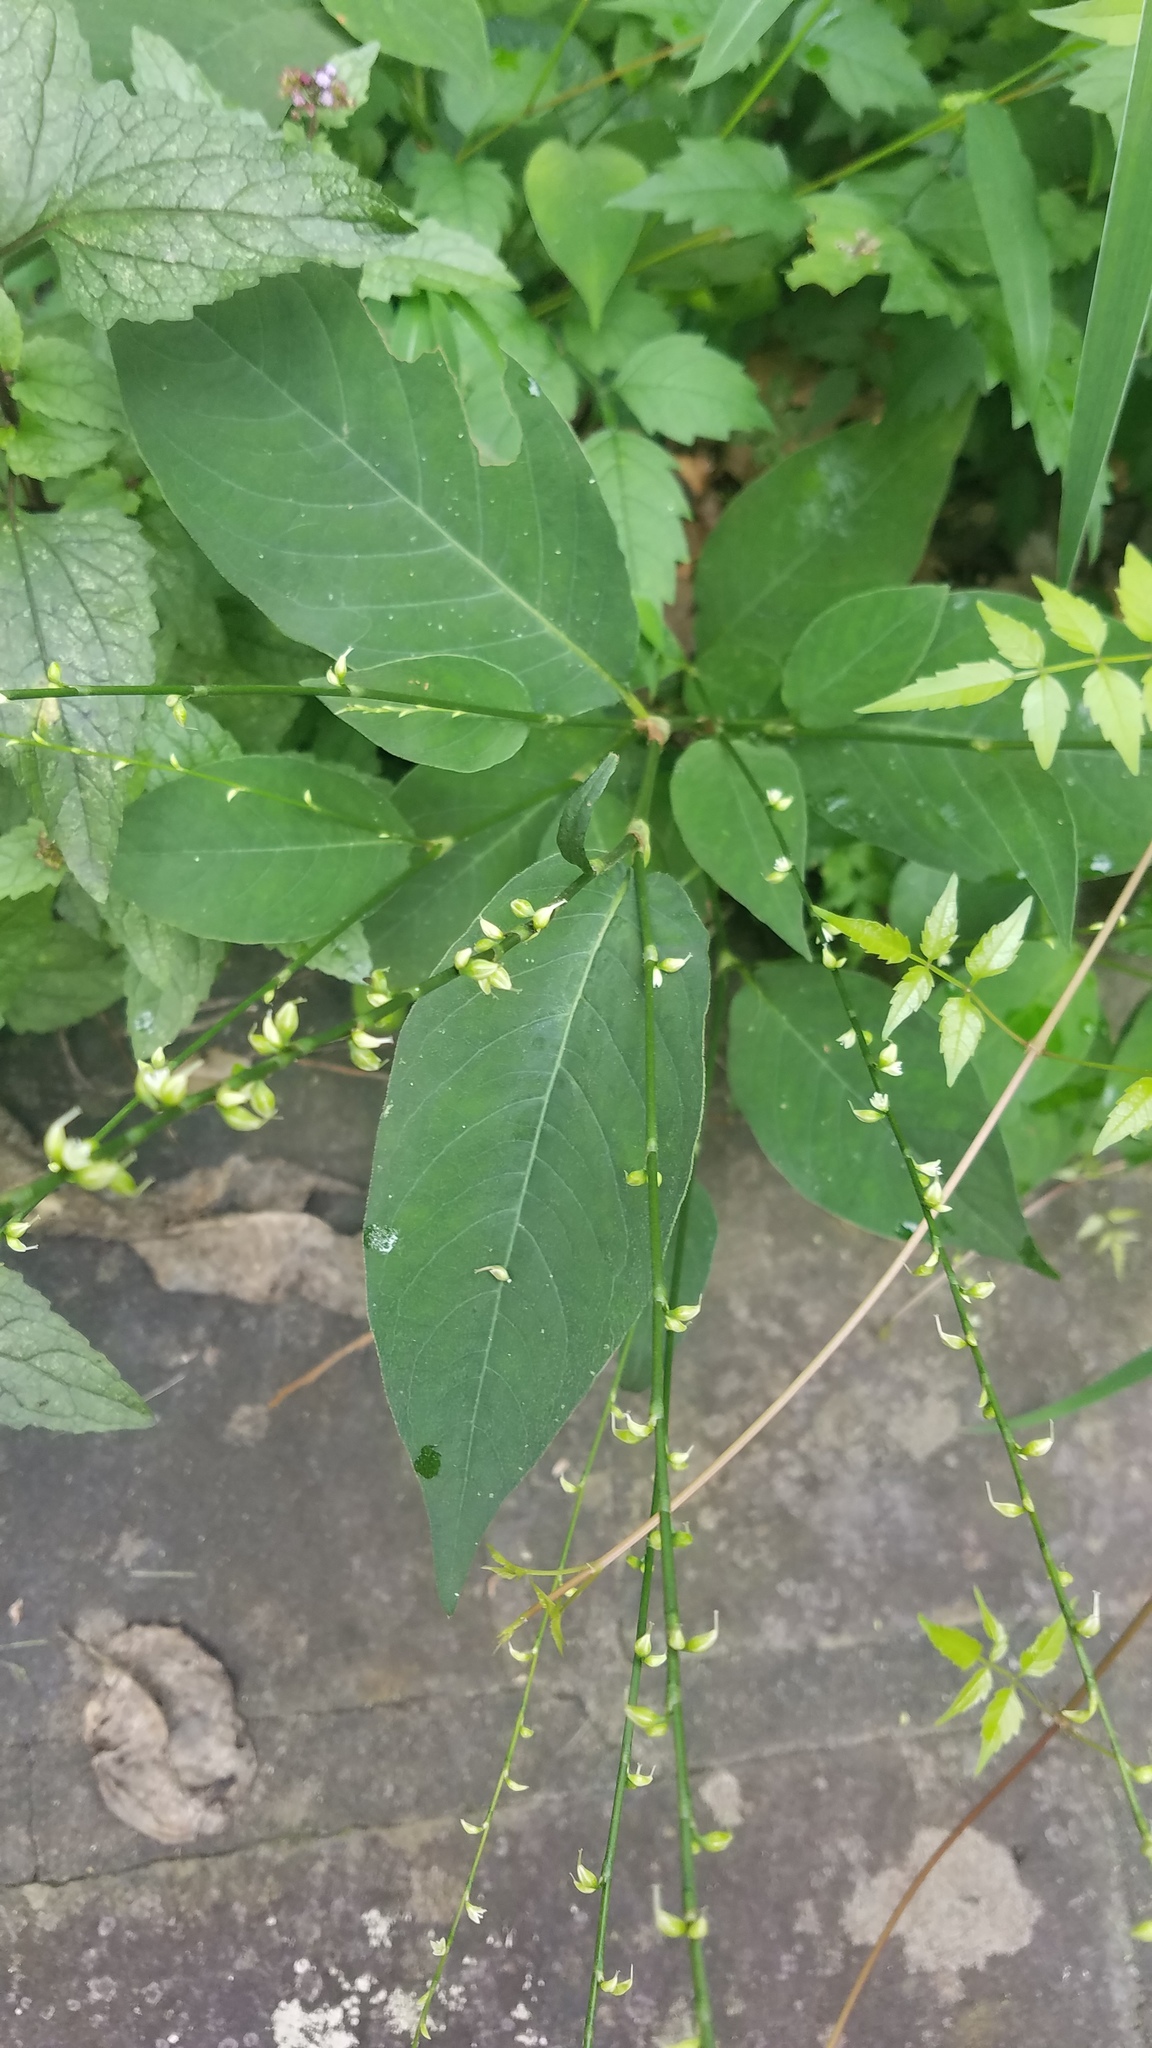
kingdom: Plantae
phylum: Tracheophyta
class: Magnoliopsida
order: Caryophyllales
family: Polygonaceae
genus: Persicaria
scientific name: Persicaria virginiana
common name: Jumpseed
